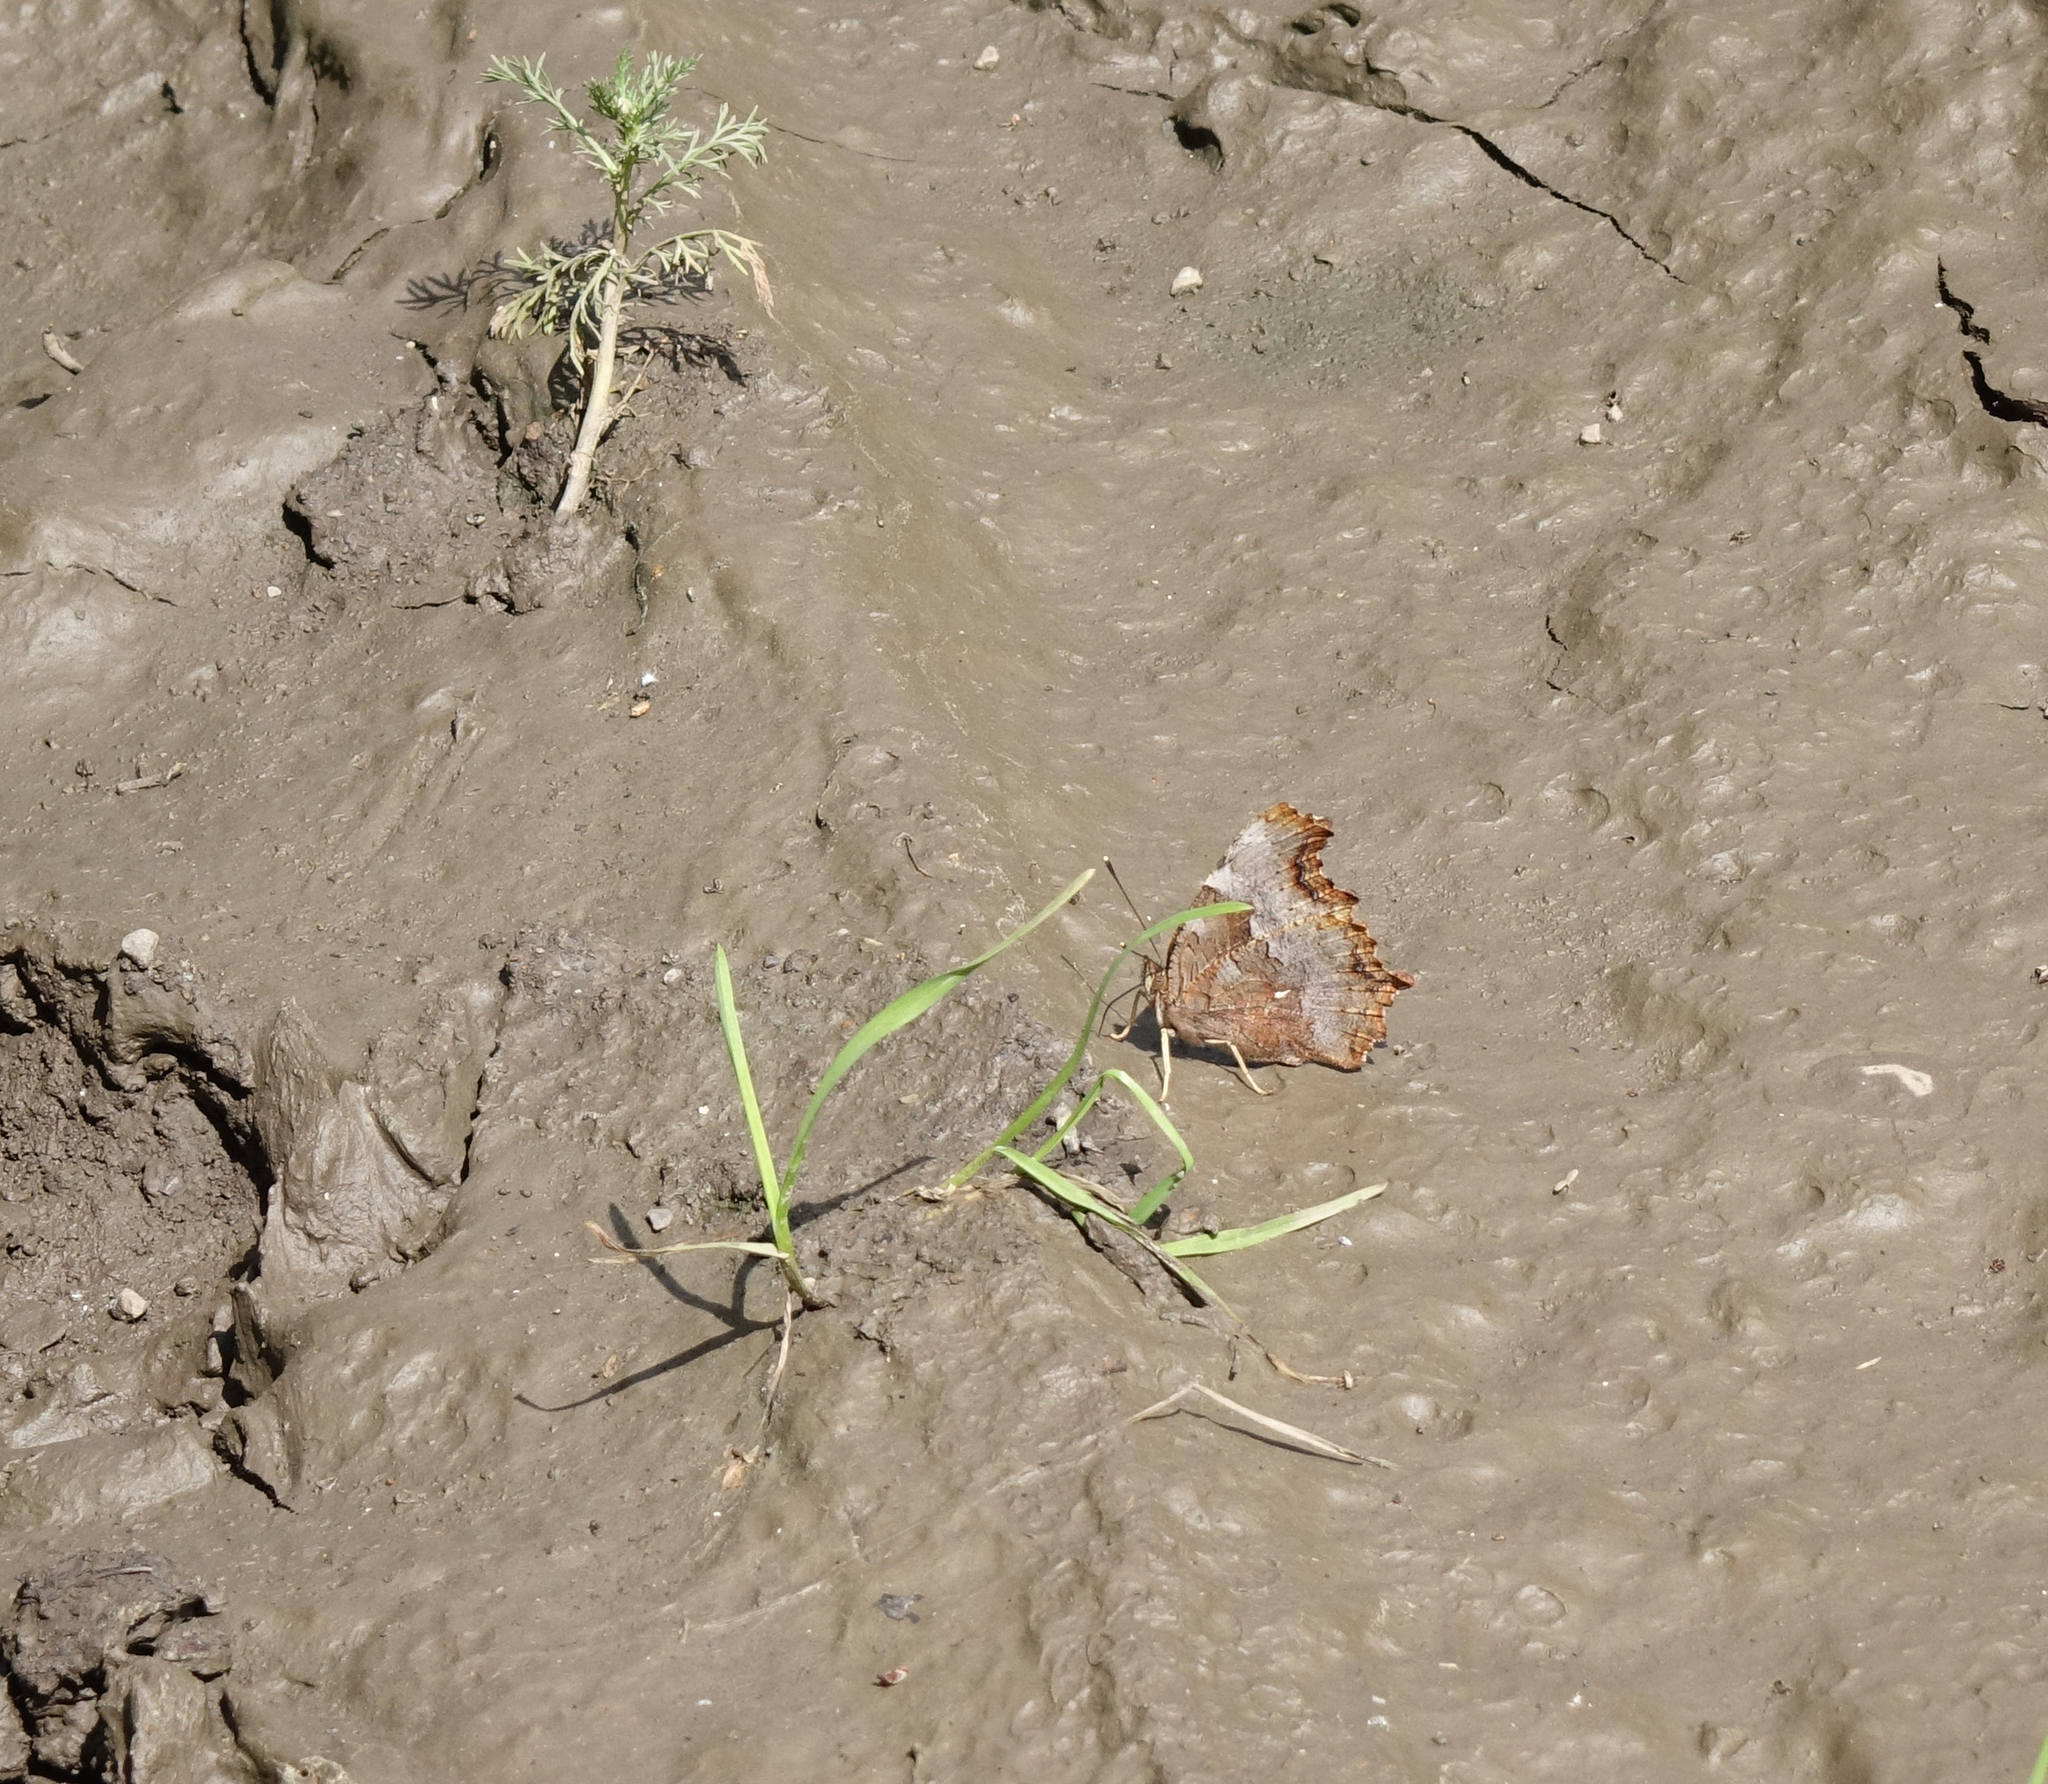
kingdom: Animalia
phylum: Arthropoda
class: Insecta
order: Lepidoptera
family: Nymphalidae
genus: Polygonia
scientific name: Polygonia vaualbum
